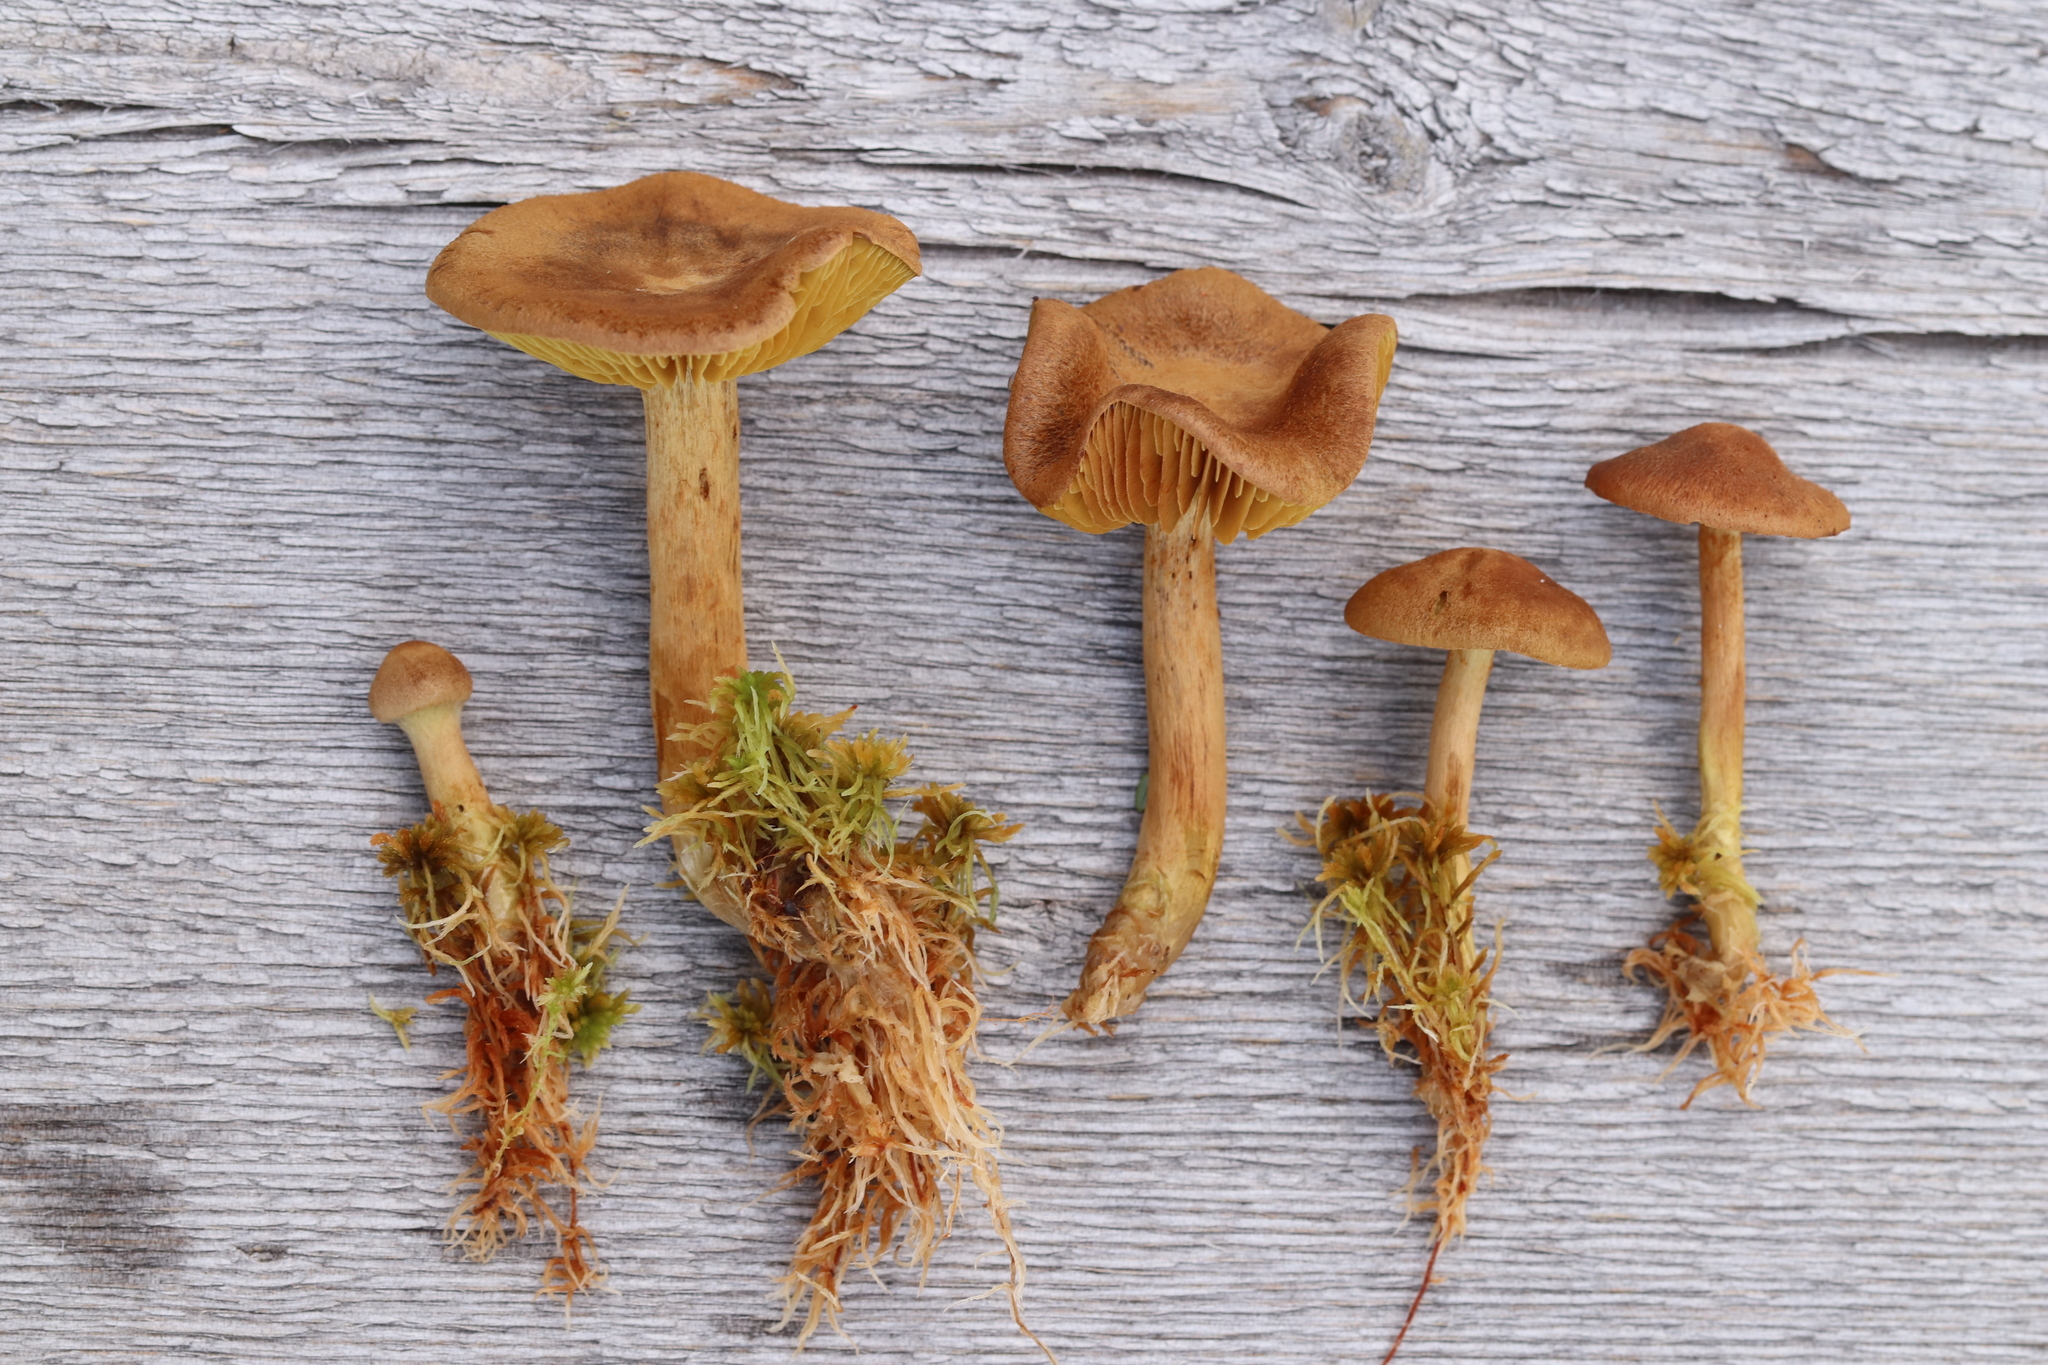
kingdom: Fungi
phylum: Basidiomycota
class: Agaricomycetes
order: Agaricales
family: Cortinariaceae
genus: Cortinarius
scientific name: Cortinarius chrysolitus
